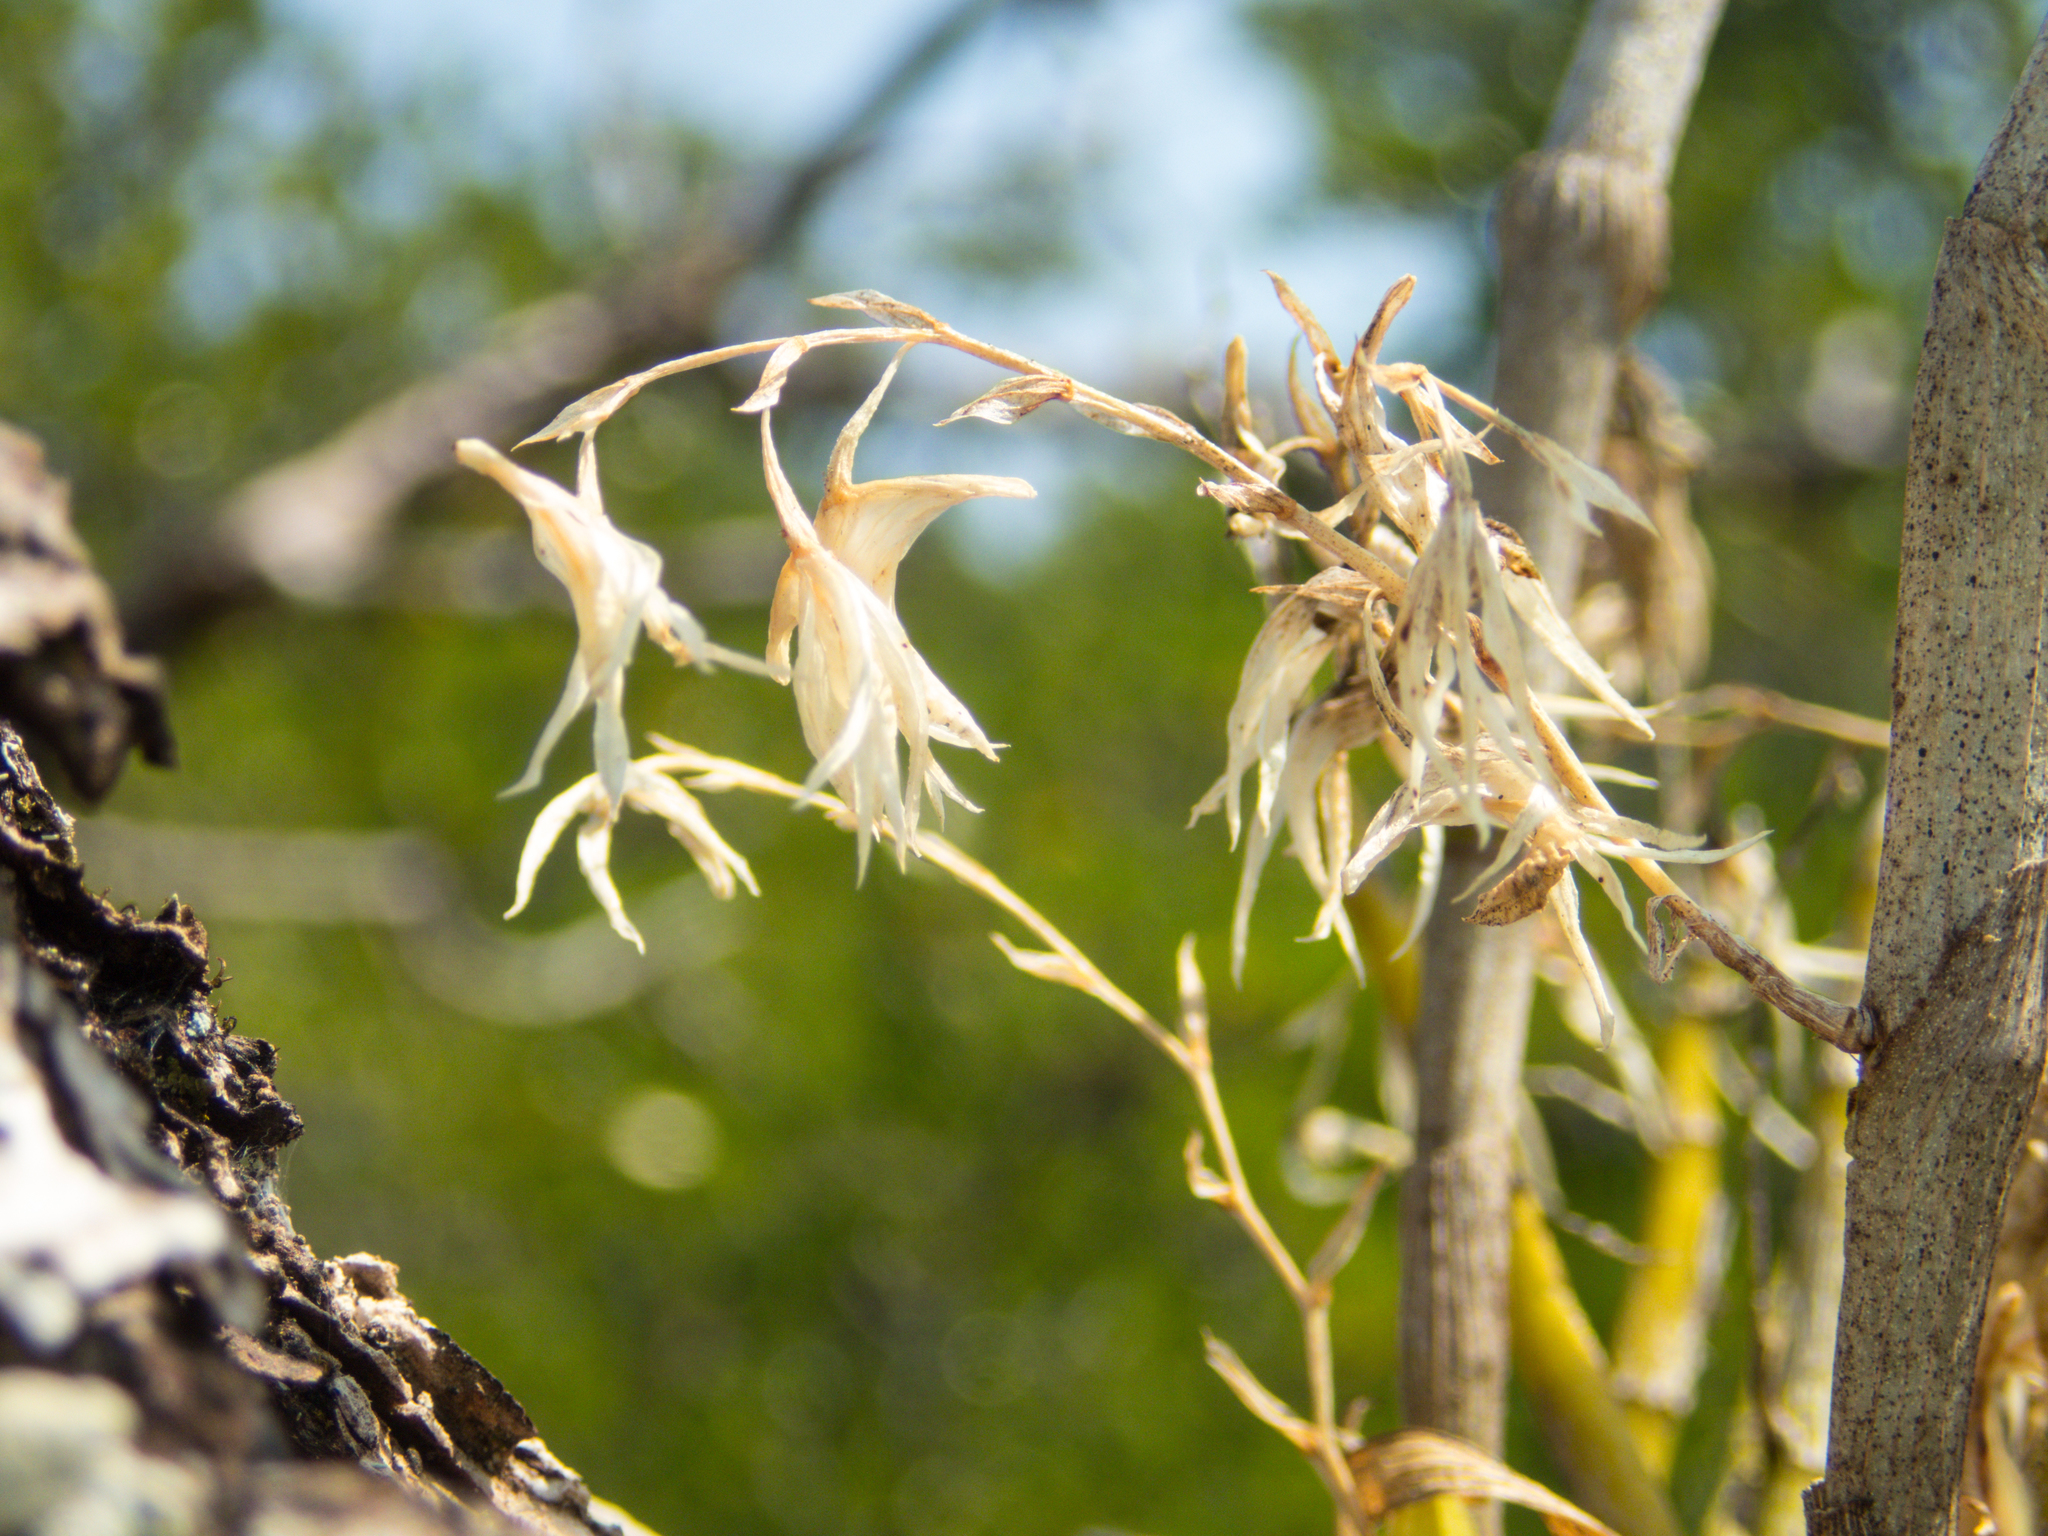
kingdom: Plantae
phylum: Tracheophyta
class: Liliopsida
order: Asparagales
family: Orchidaceae
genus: Dendrobium
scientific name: Dendrobium kratense
